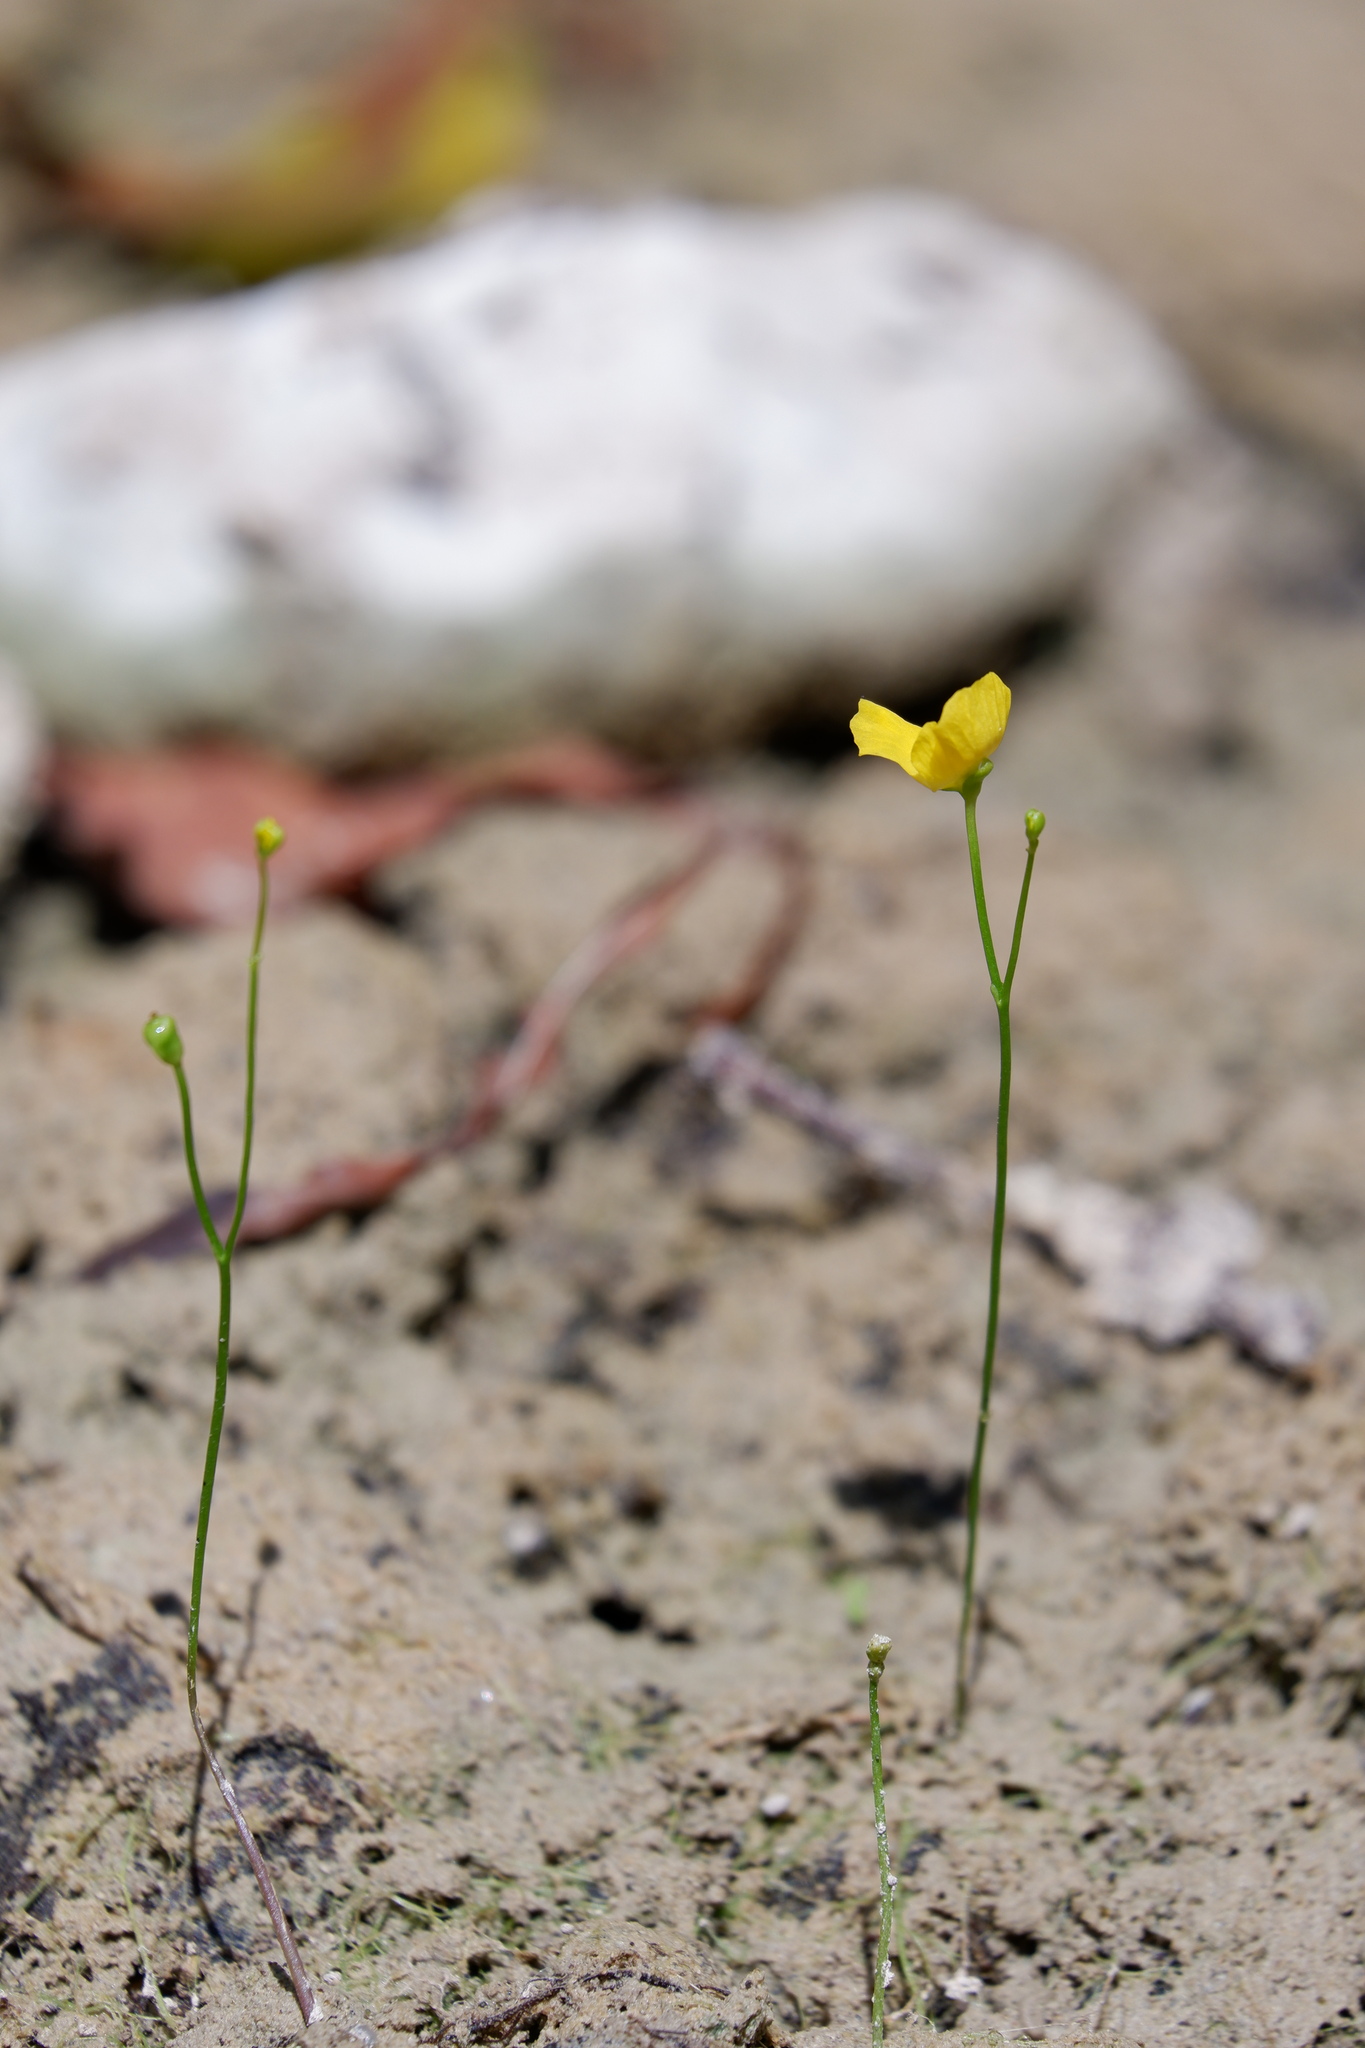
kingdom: Plantae
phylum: Tracheophyta
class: Magnoliopsida
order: Lamiales
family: Lentibulariaceae
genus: Utricularia
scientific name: Utricularia gibba
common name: Humped bladderwort
